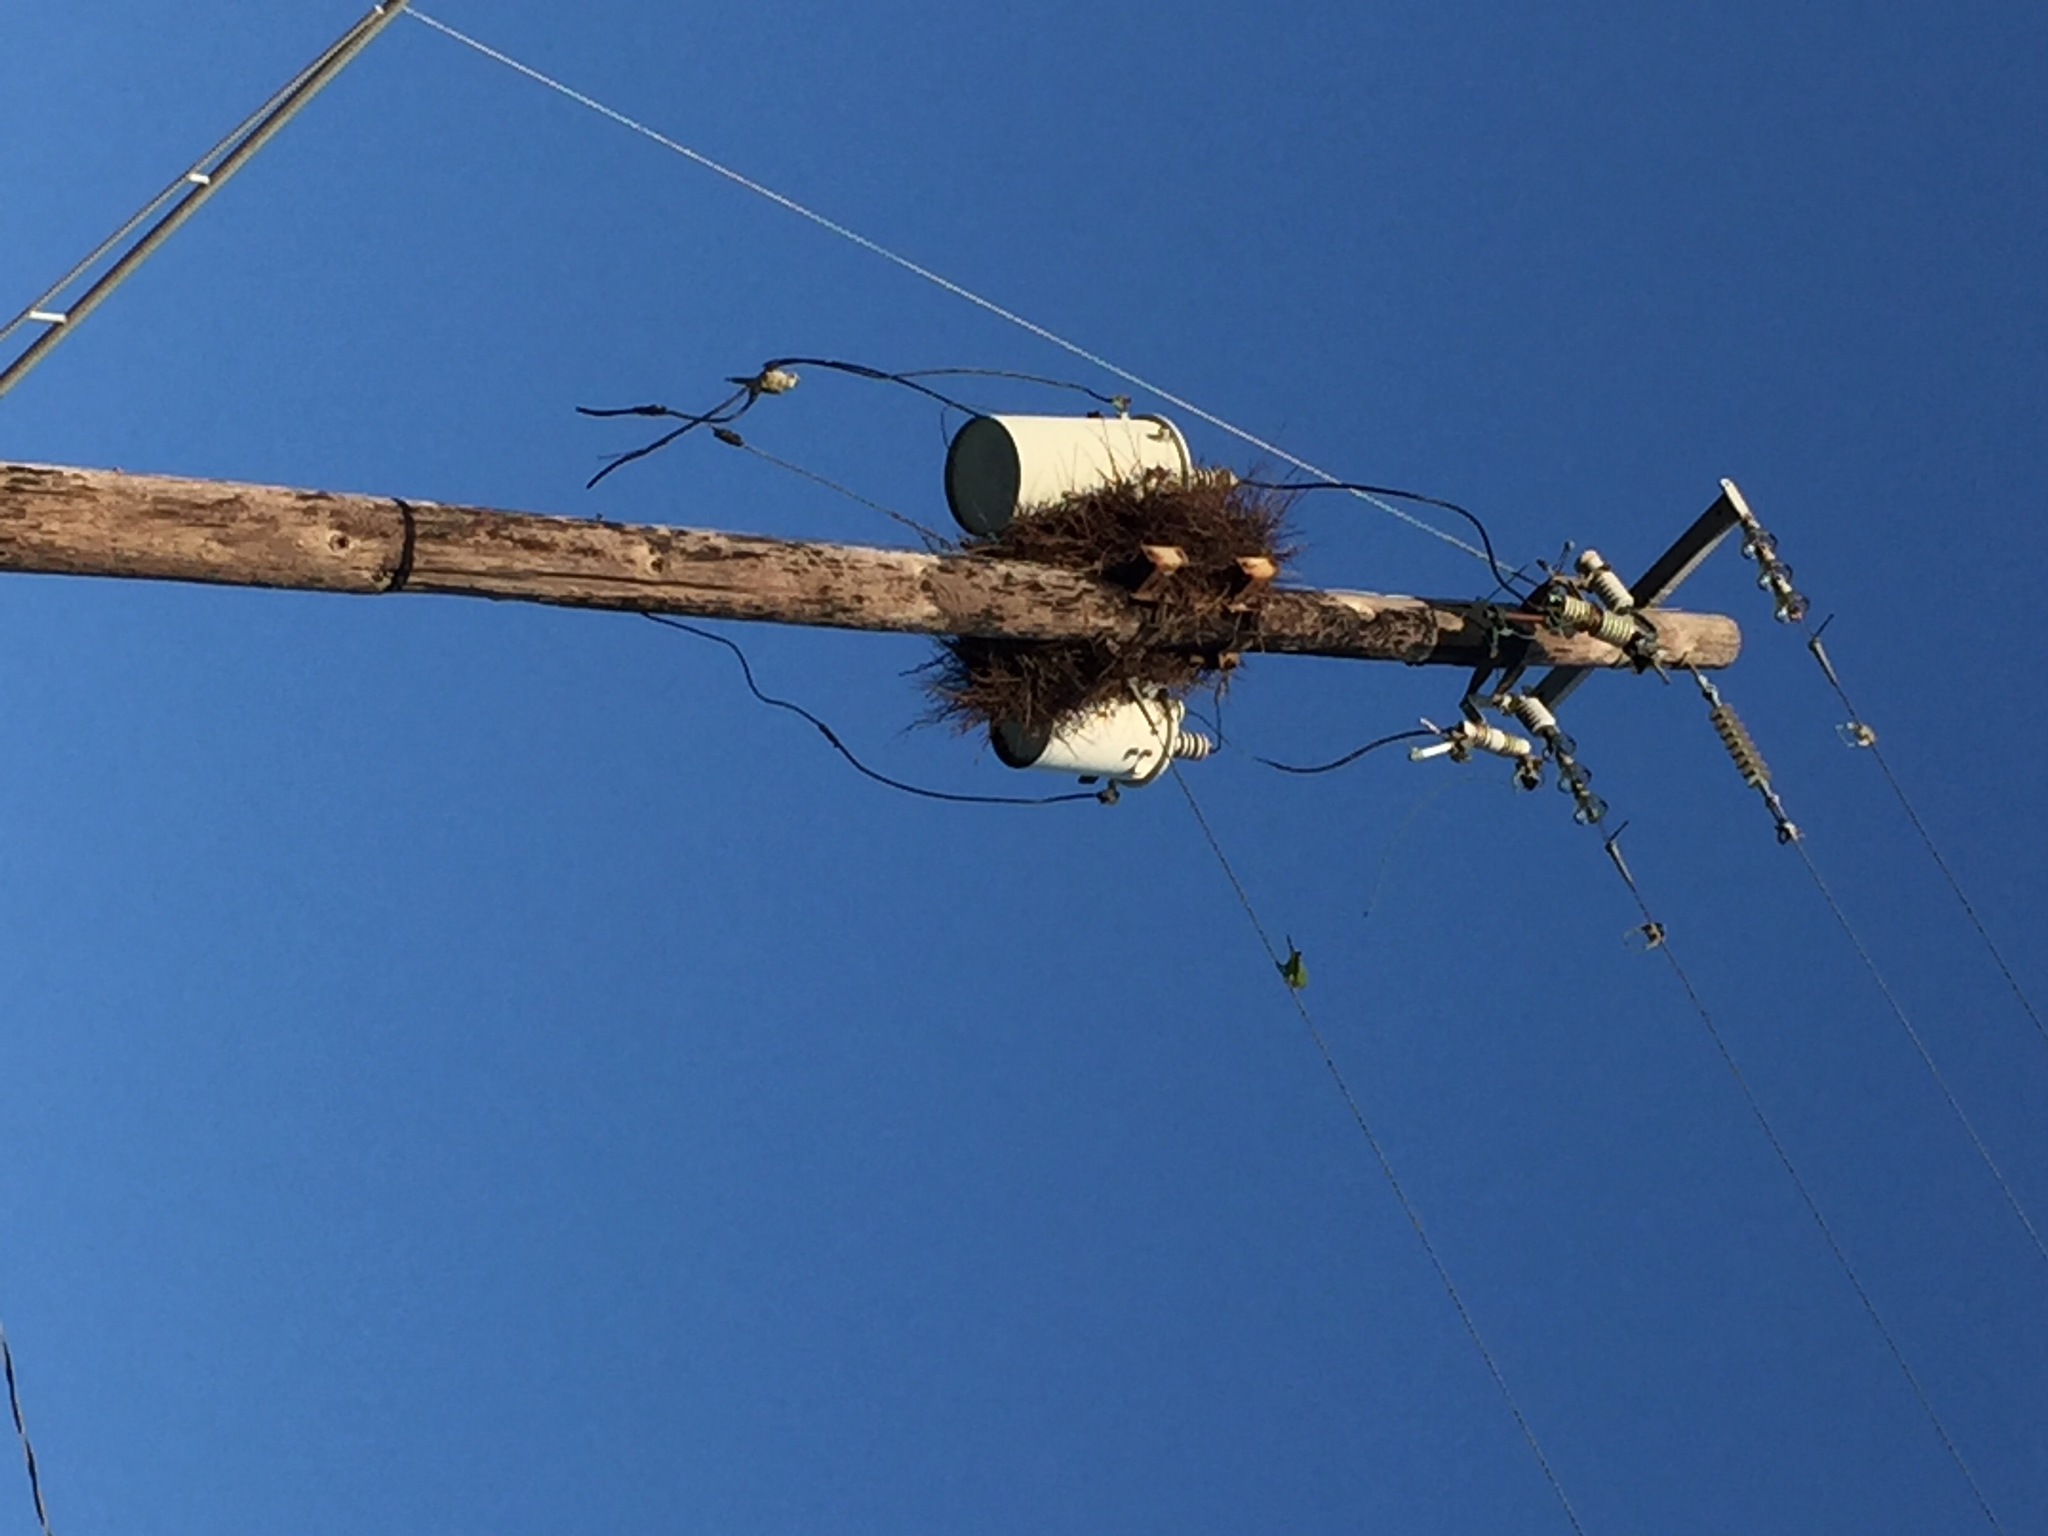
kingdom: Animalia
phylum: Chordata
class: Aves
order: Psittaciformes
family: Psittacidae
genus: Myiopsitta
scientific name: Myiopsitta monachus
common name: Monk parakeet
